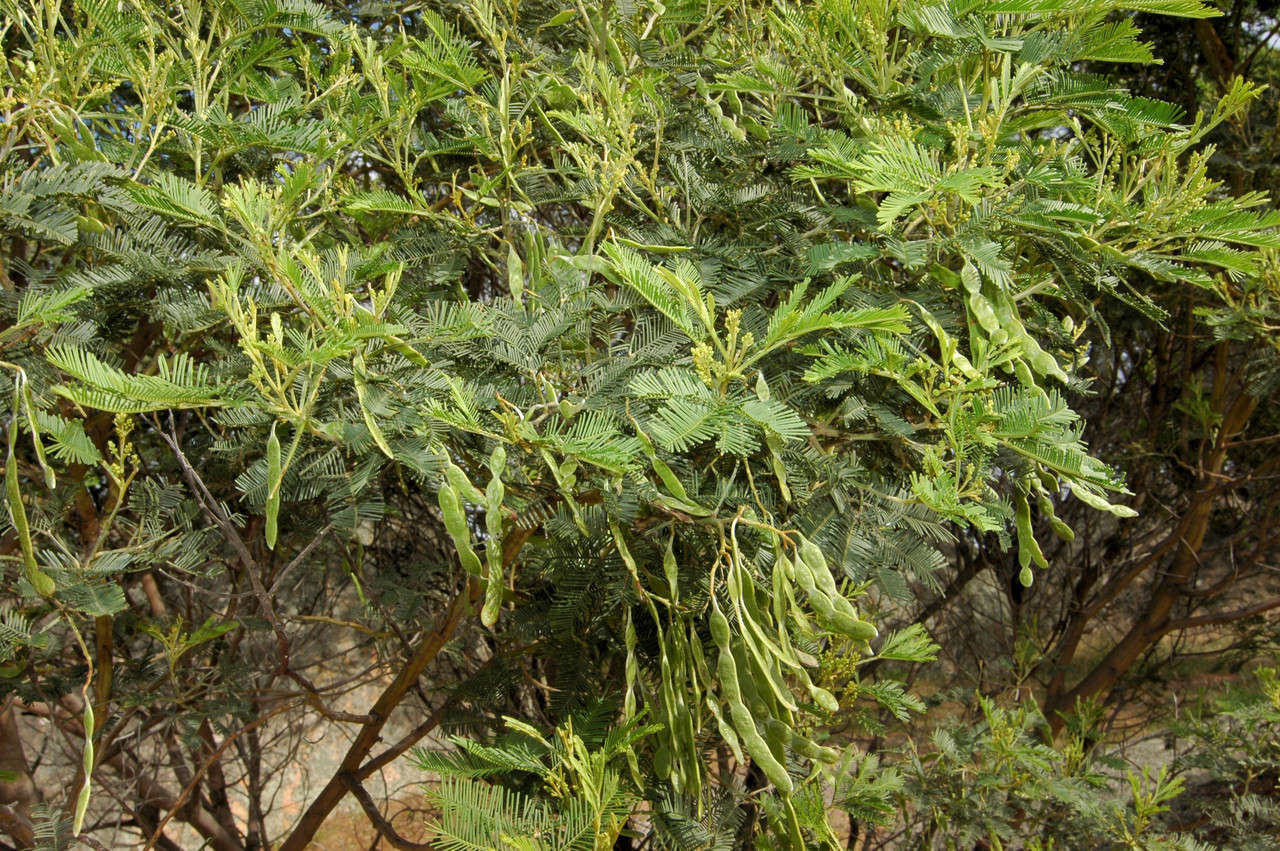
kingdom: Plantae
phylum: Tracheophyta
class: Magnoliopsida
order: Fabales
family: Fabaceae
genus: Acacia
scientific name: Acacia deanei
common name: Deane's wattle
